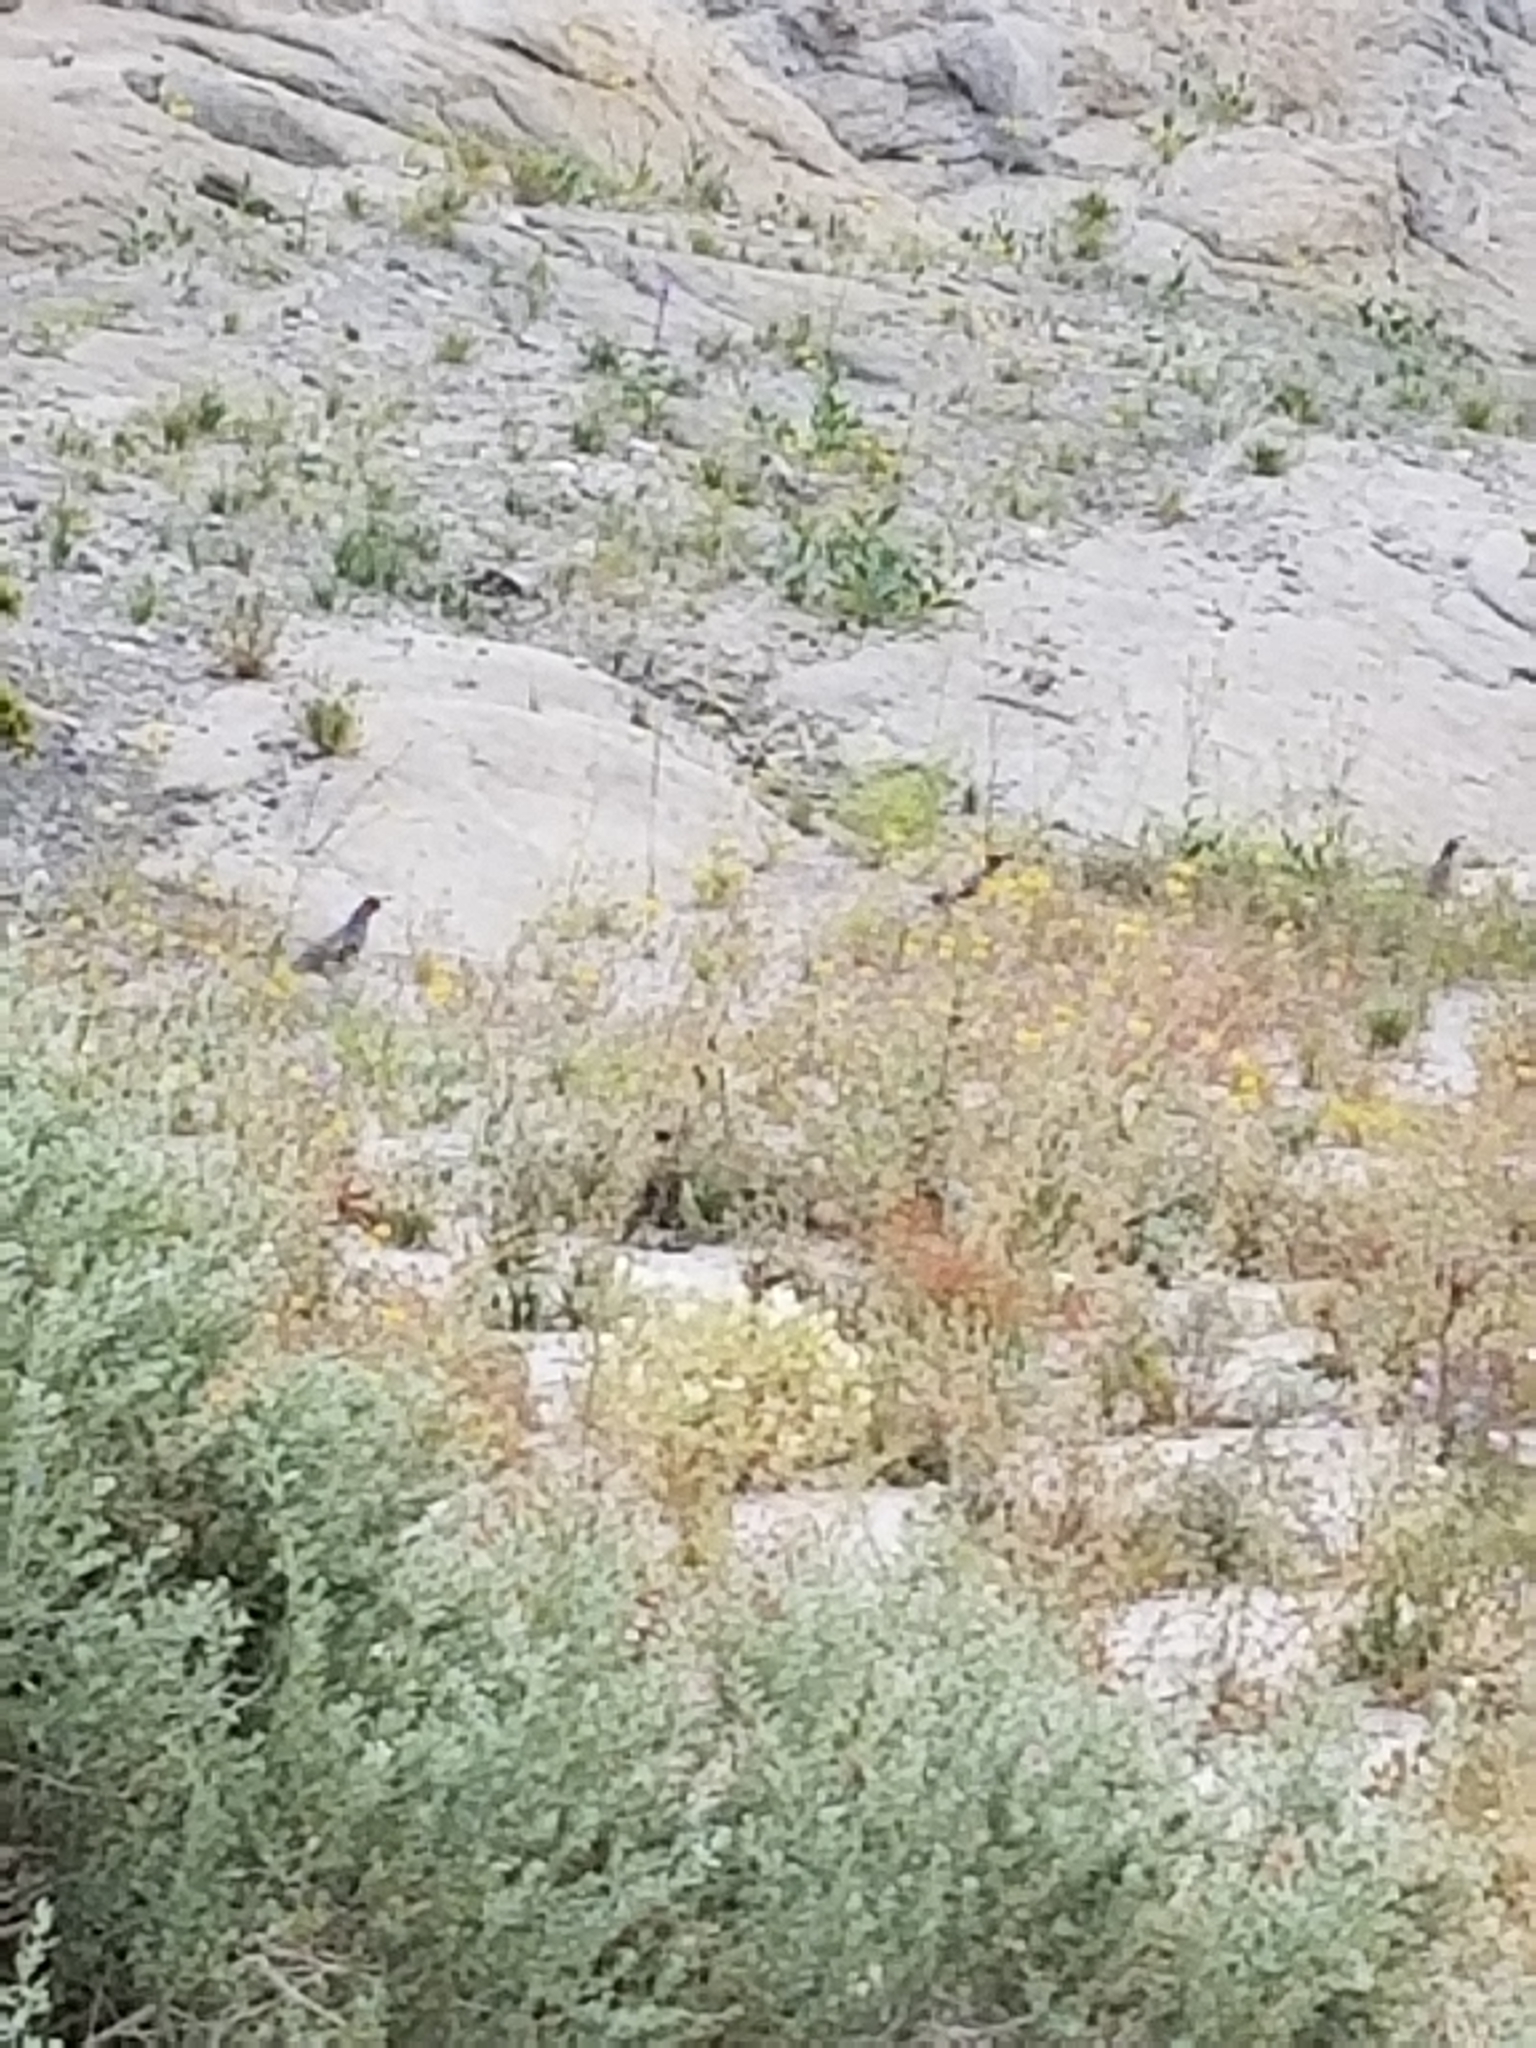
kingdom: Animalia
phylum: Chordata
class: Aves
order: Galliformes
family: Odontophoridae
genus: Callipepla
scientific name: Callipepla gambelii
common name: Gambel's quail
